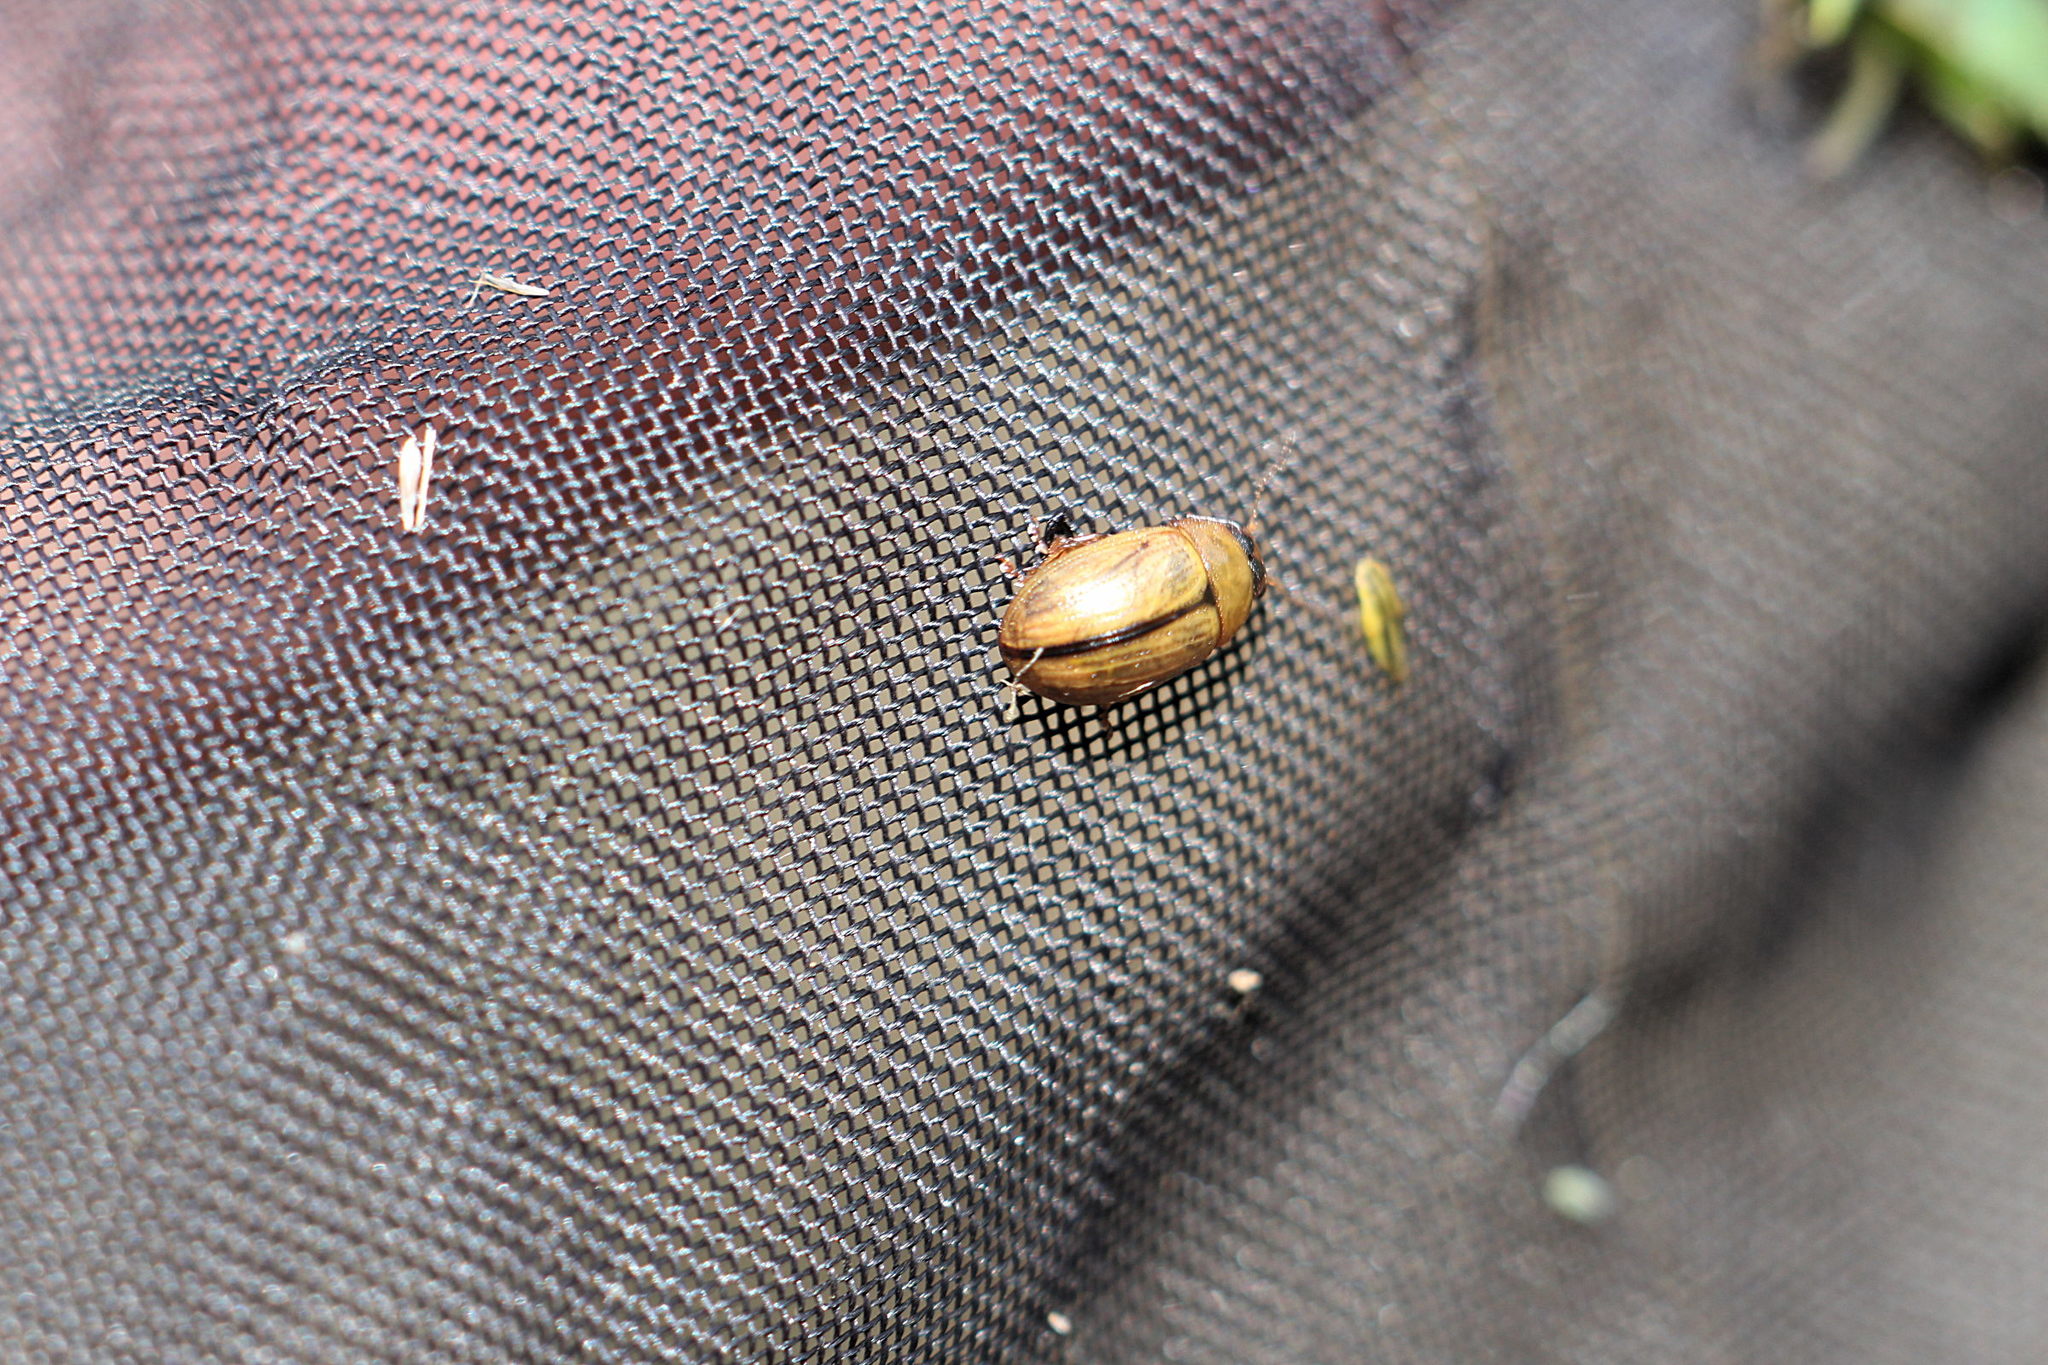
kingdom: Animalia
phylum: Arthropoda
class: Insecta
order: Coleoptera
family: Chrysomelidae
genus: Gonioctena
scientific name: Gonioctena olivacea
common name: Broom leaf beetle
